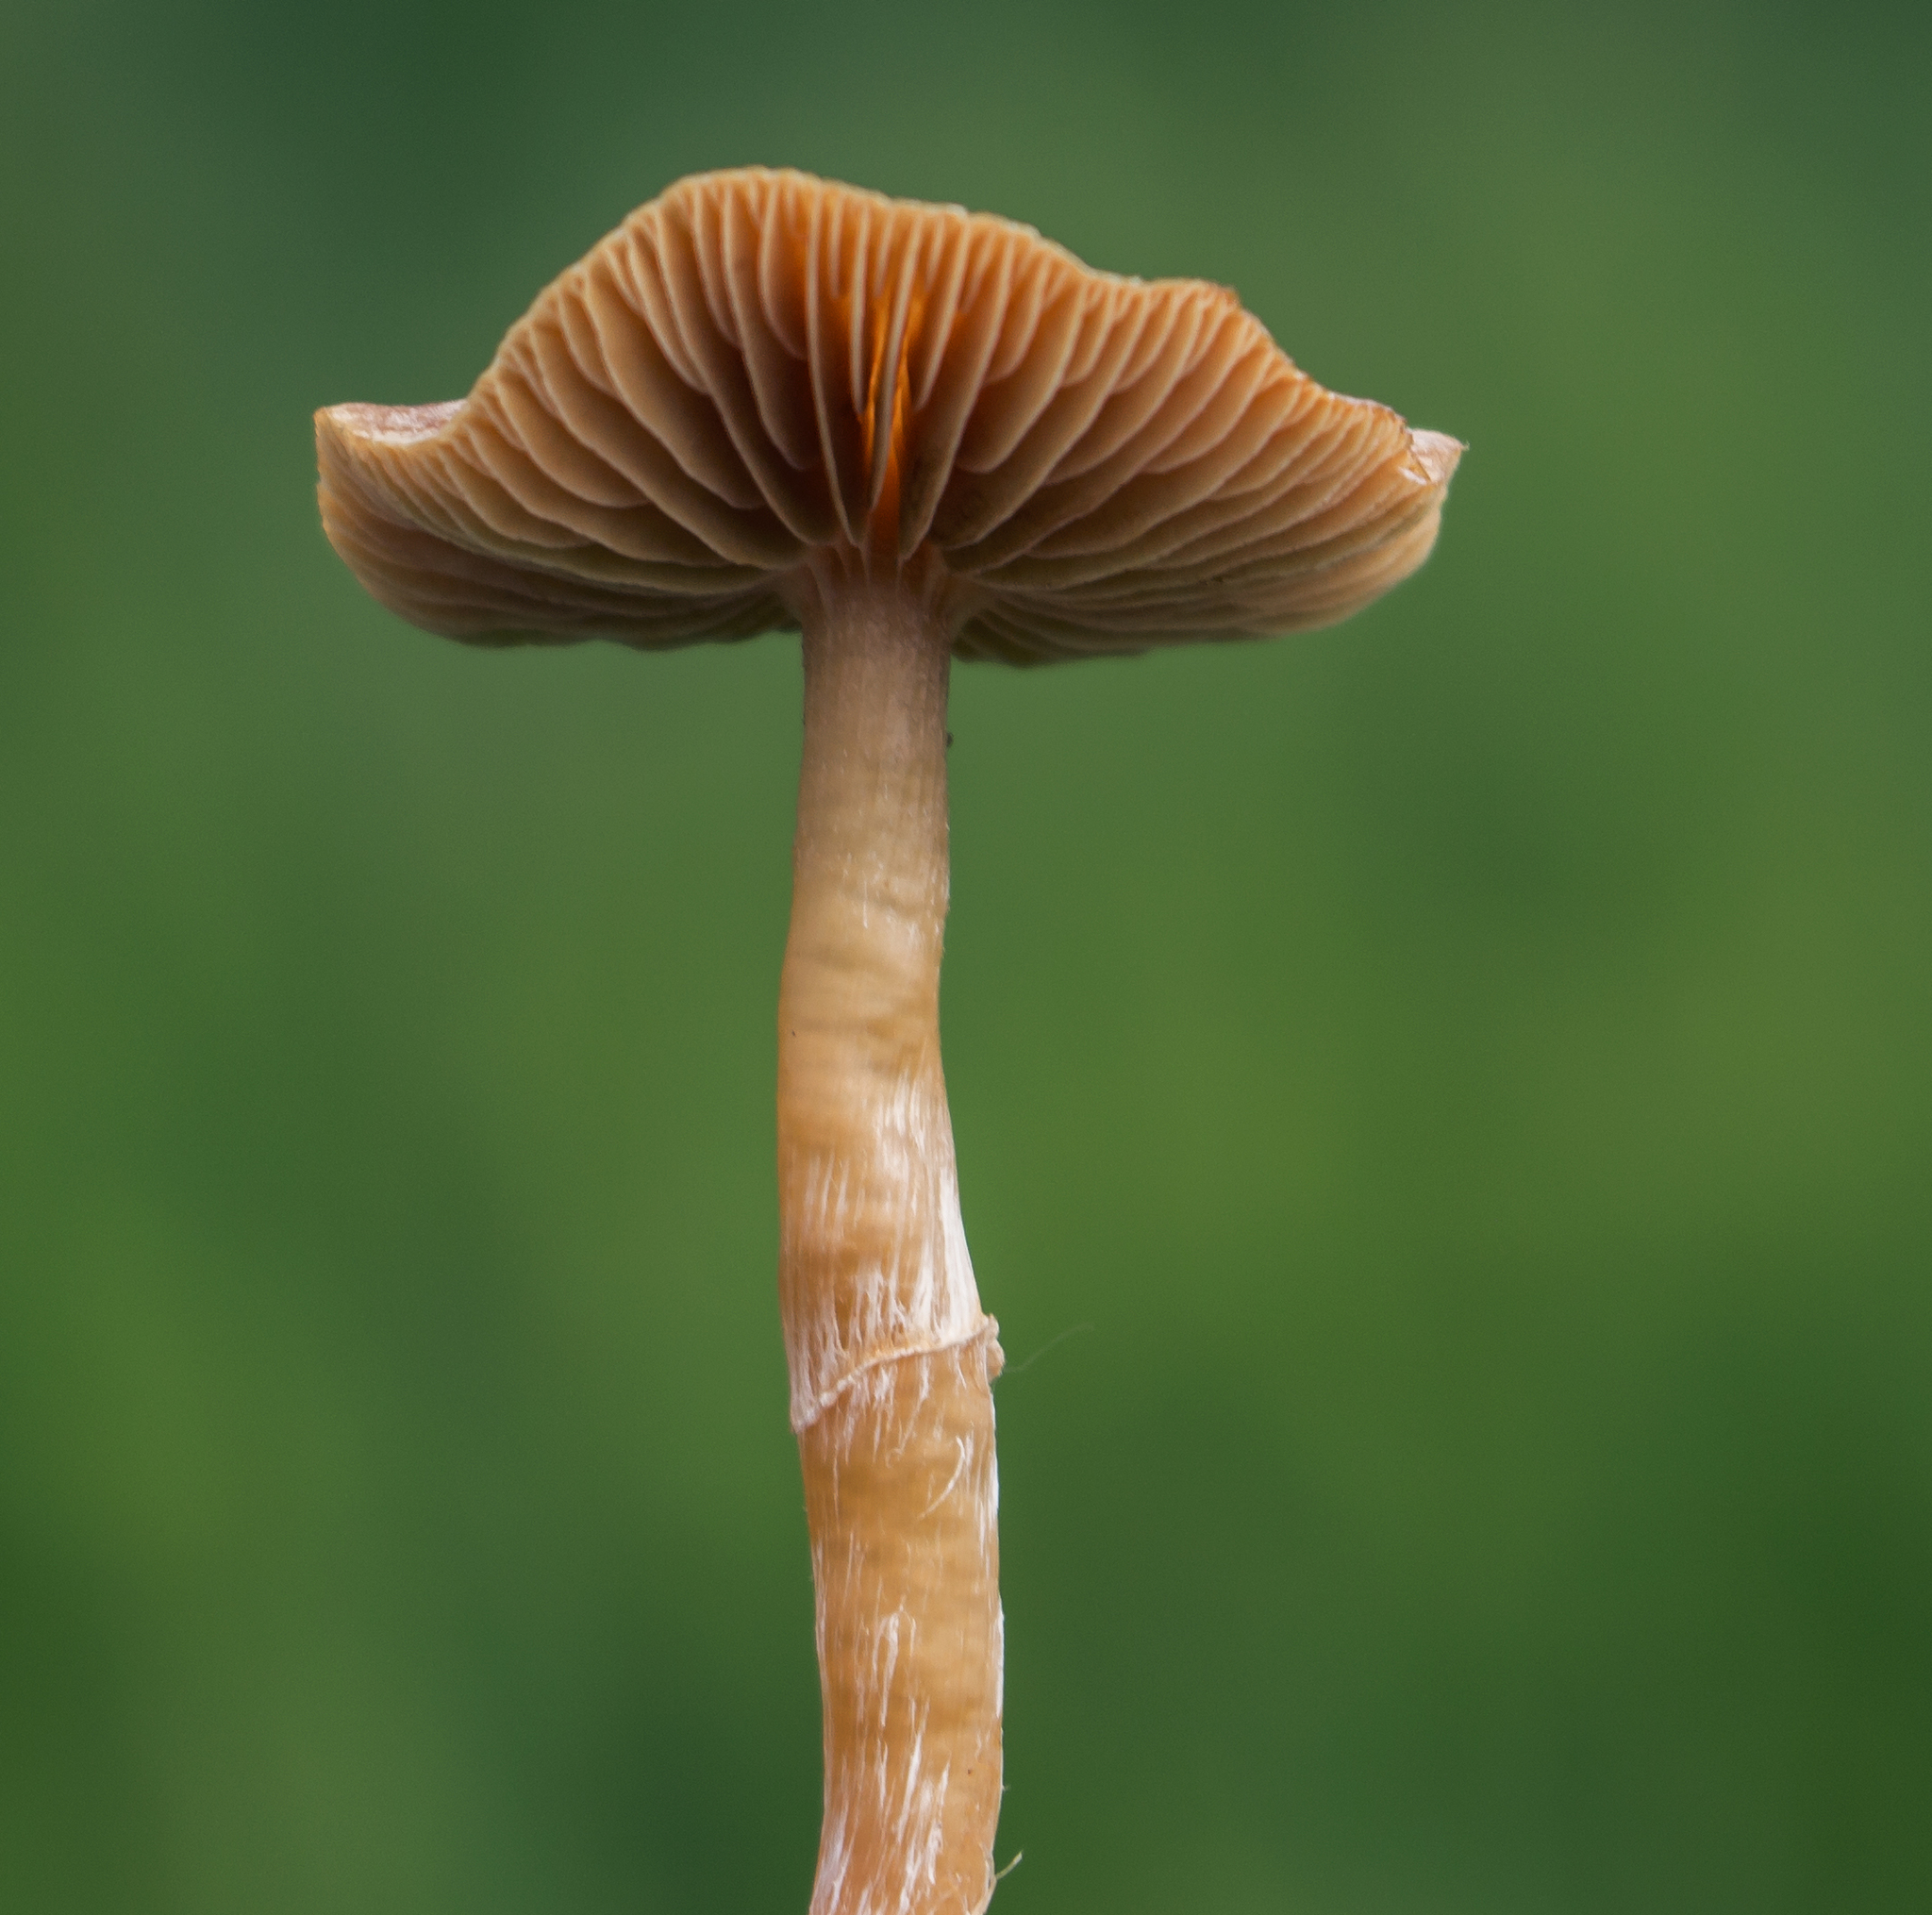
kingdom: Fungi
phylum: Basidiomycota
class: Agaricomycetes
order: Agaricales
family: Tubariaceae
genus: Tubaria
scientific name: Tubaria
